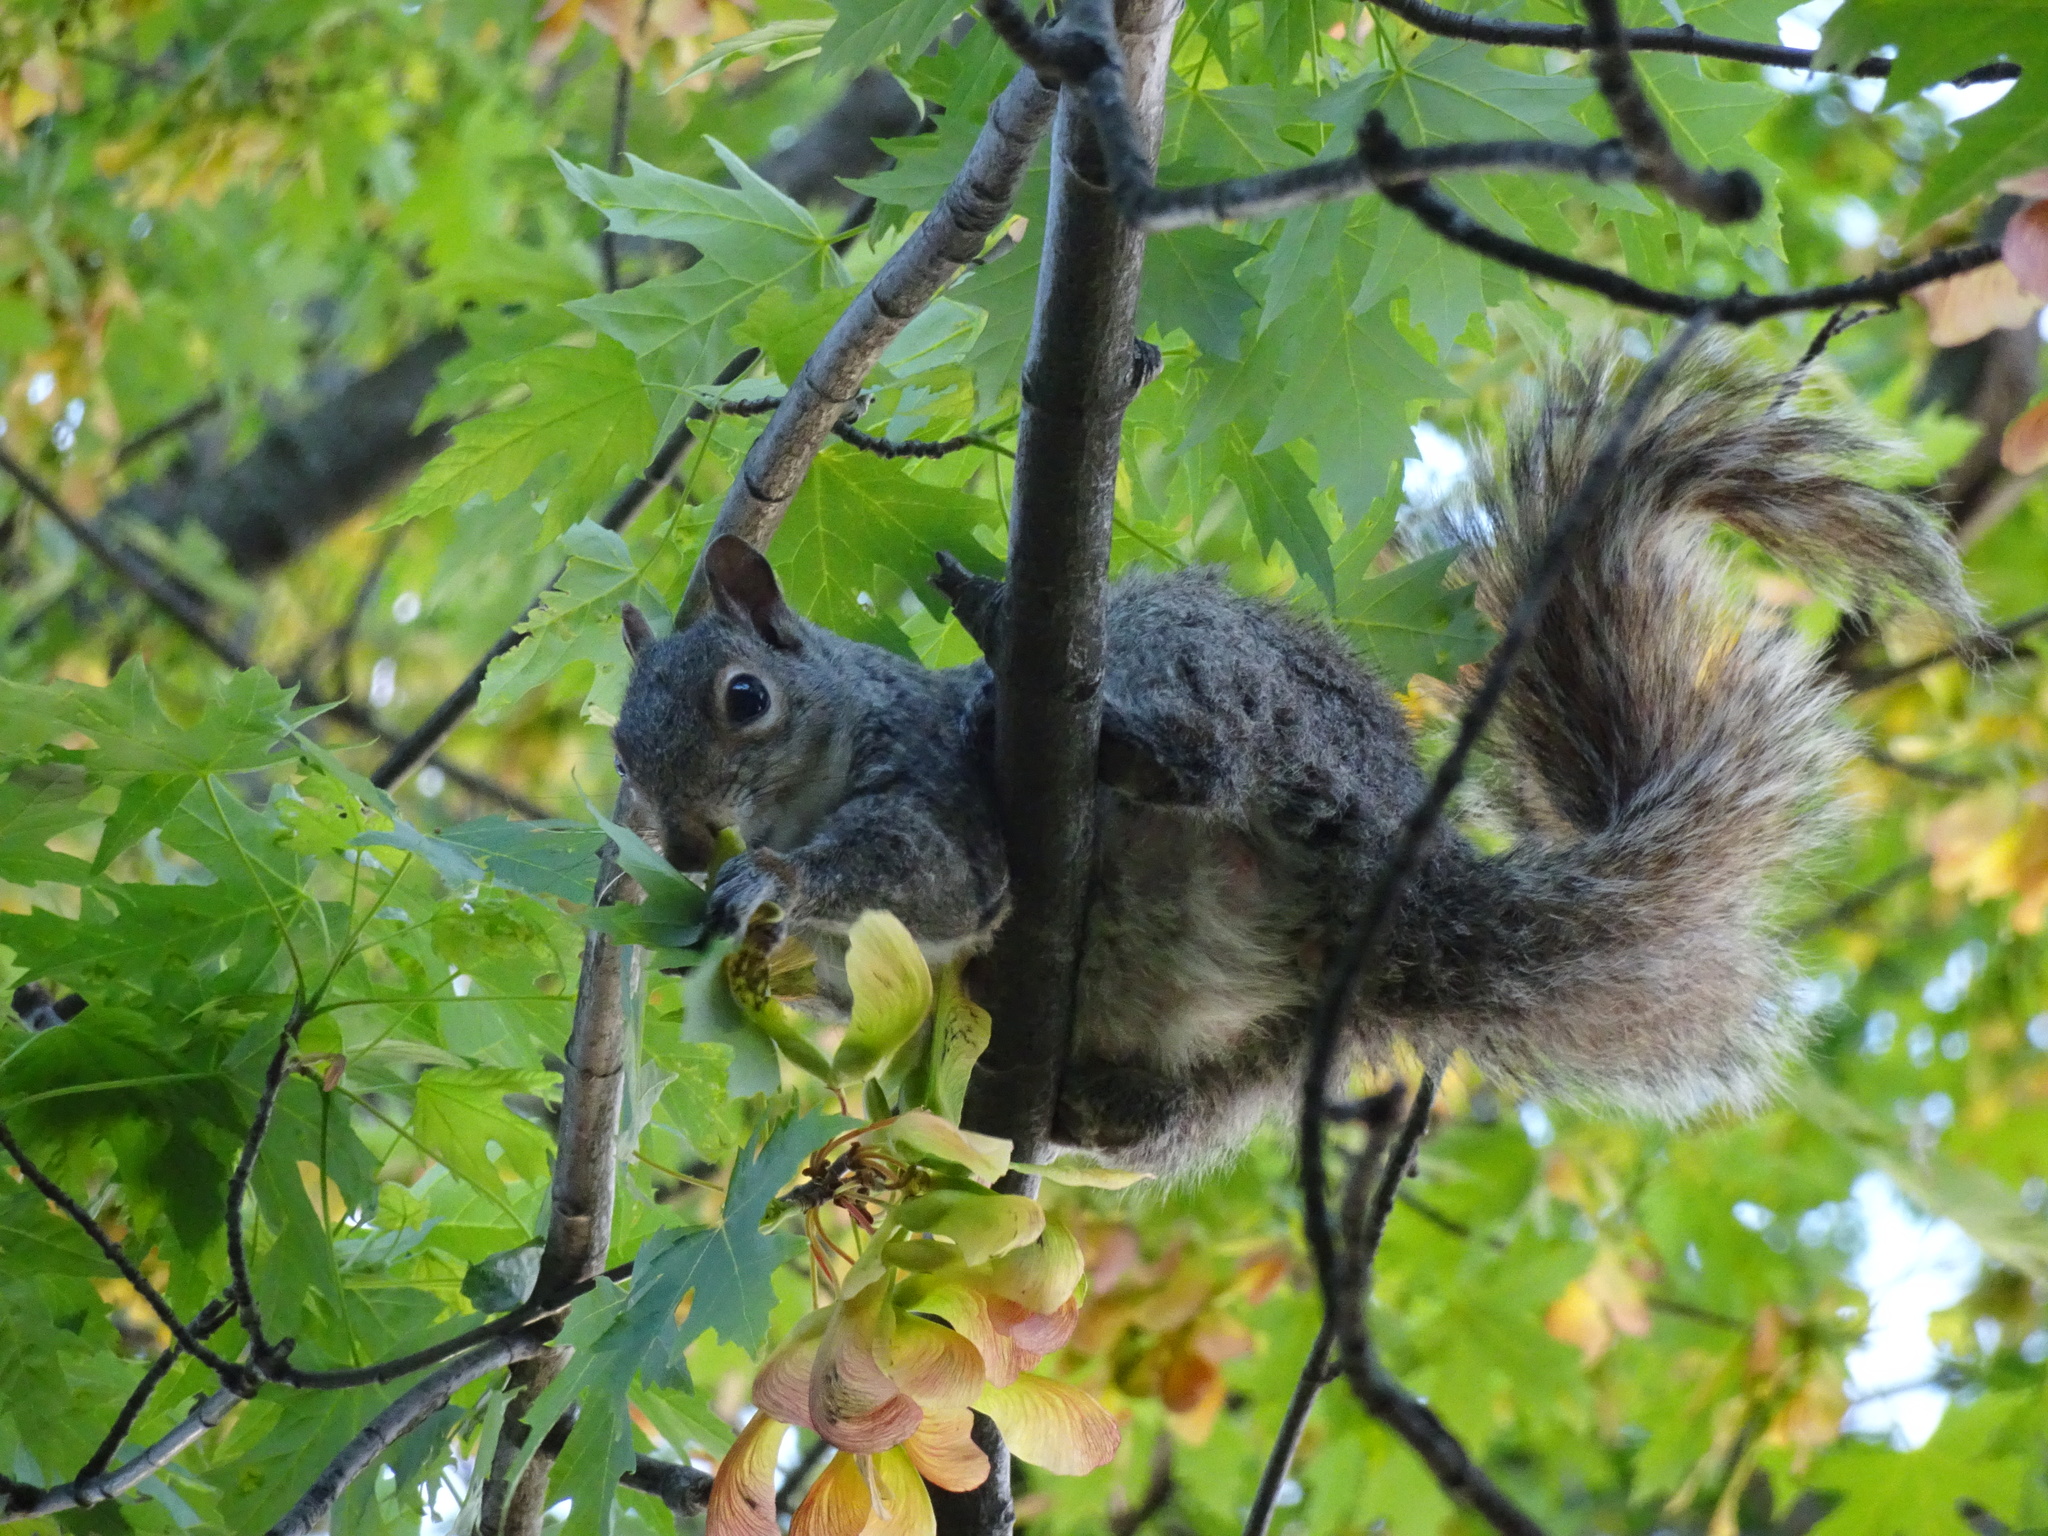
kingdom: Animalia
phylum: Chordata
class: Mammalia
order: Rodentia
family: Sciuridae
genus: Sciurus
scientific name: Sciurus carolinensis
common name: Eastern gray squirrel
